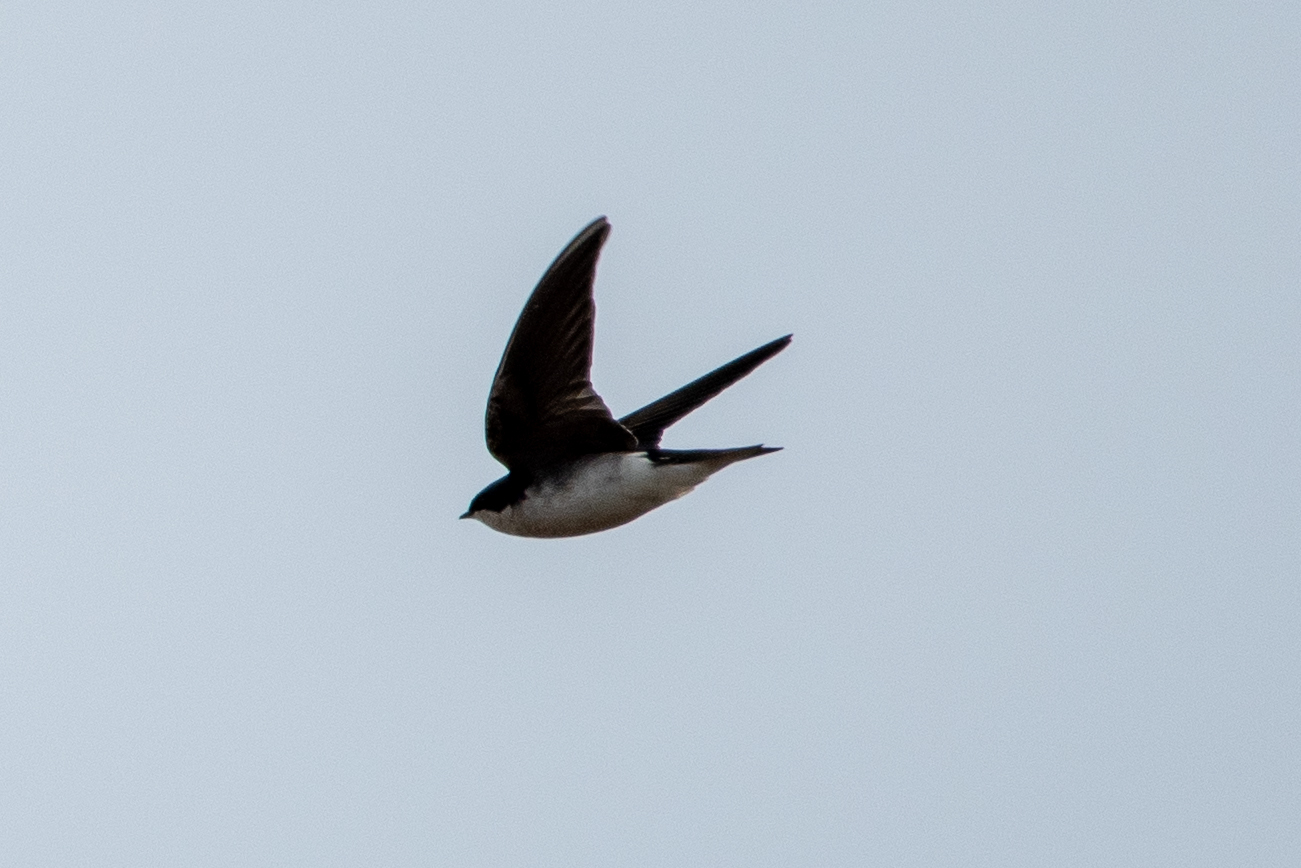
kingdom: Animalia
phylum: Chordata
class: Aves
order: Passeriformes
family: Hirundinidae
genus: Tachycineta
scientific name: Tachycineta bicolor
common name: Tree swallow
